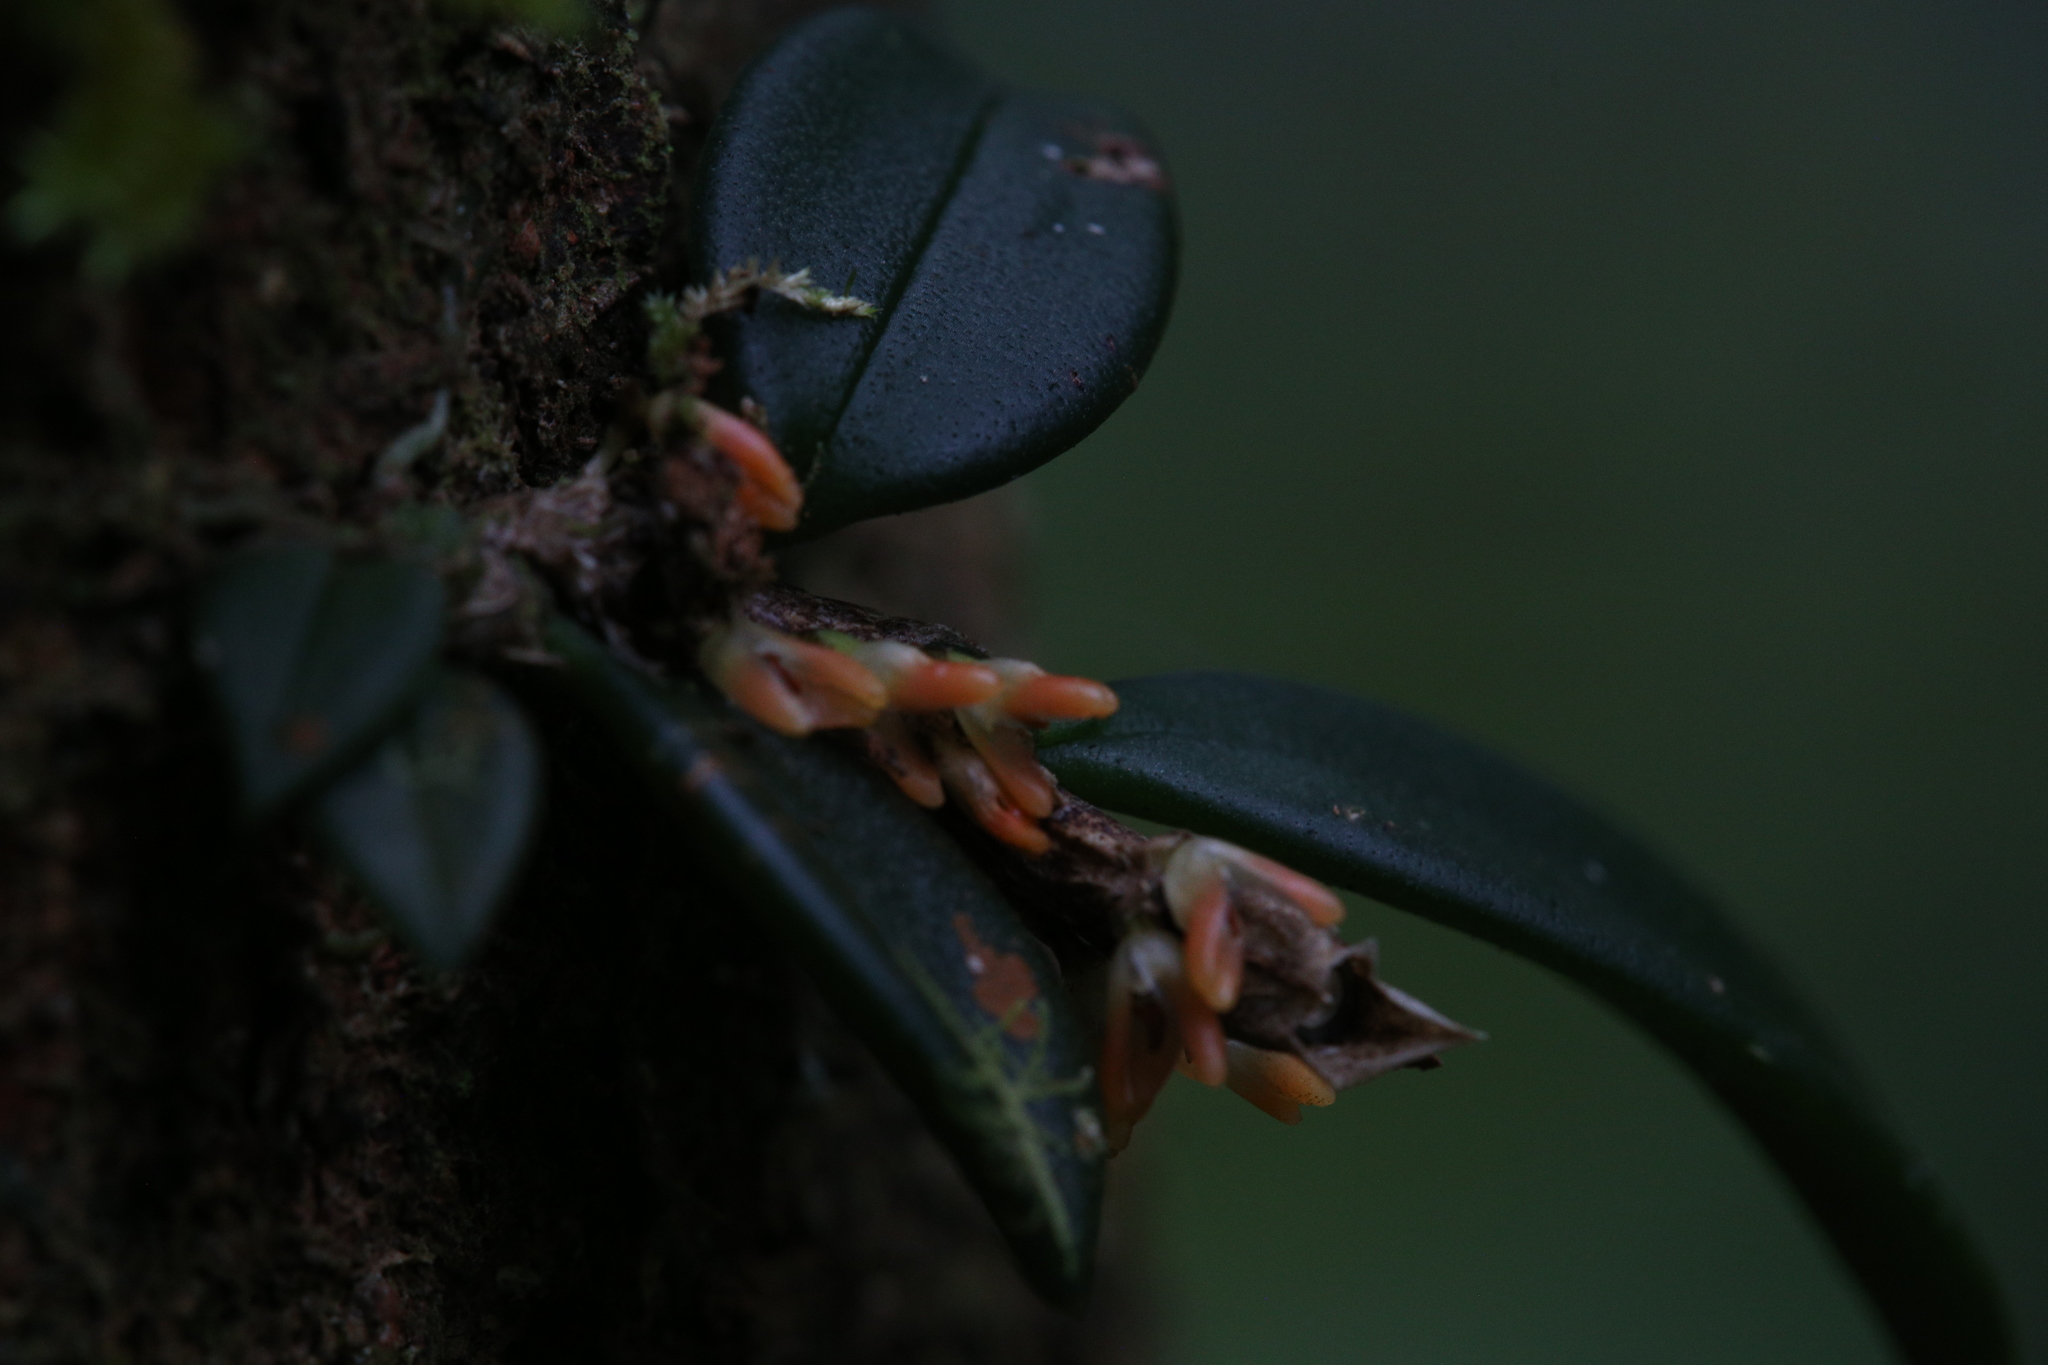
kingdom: Plantae
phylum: Tracheophyta
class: Liliopsida
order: Asparagales
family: Orchidaceae
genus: Bulbophyllum
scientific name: Bulbophyllum schillerianum
